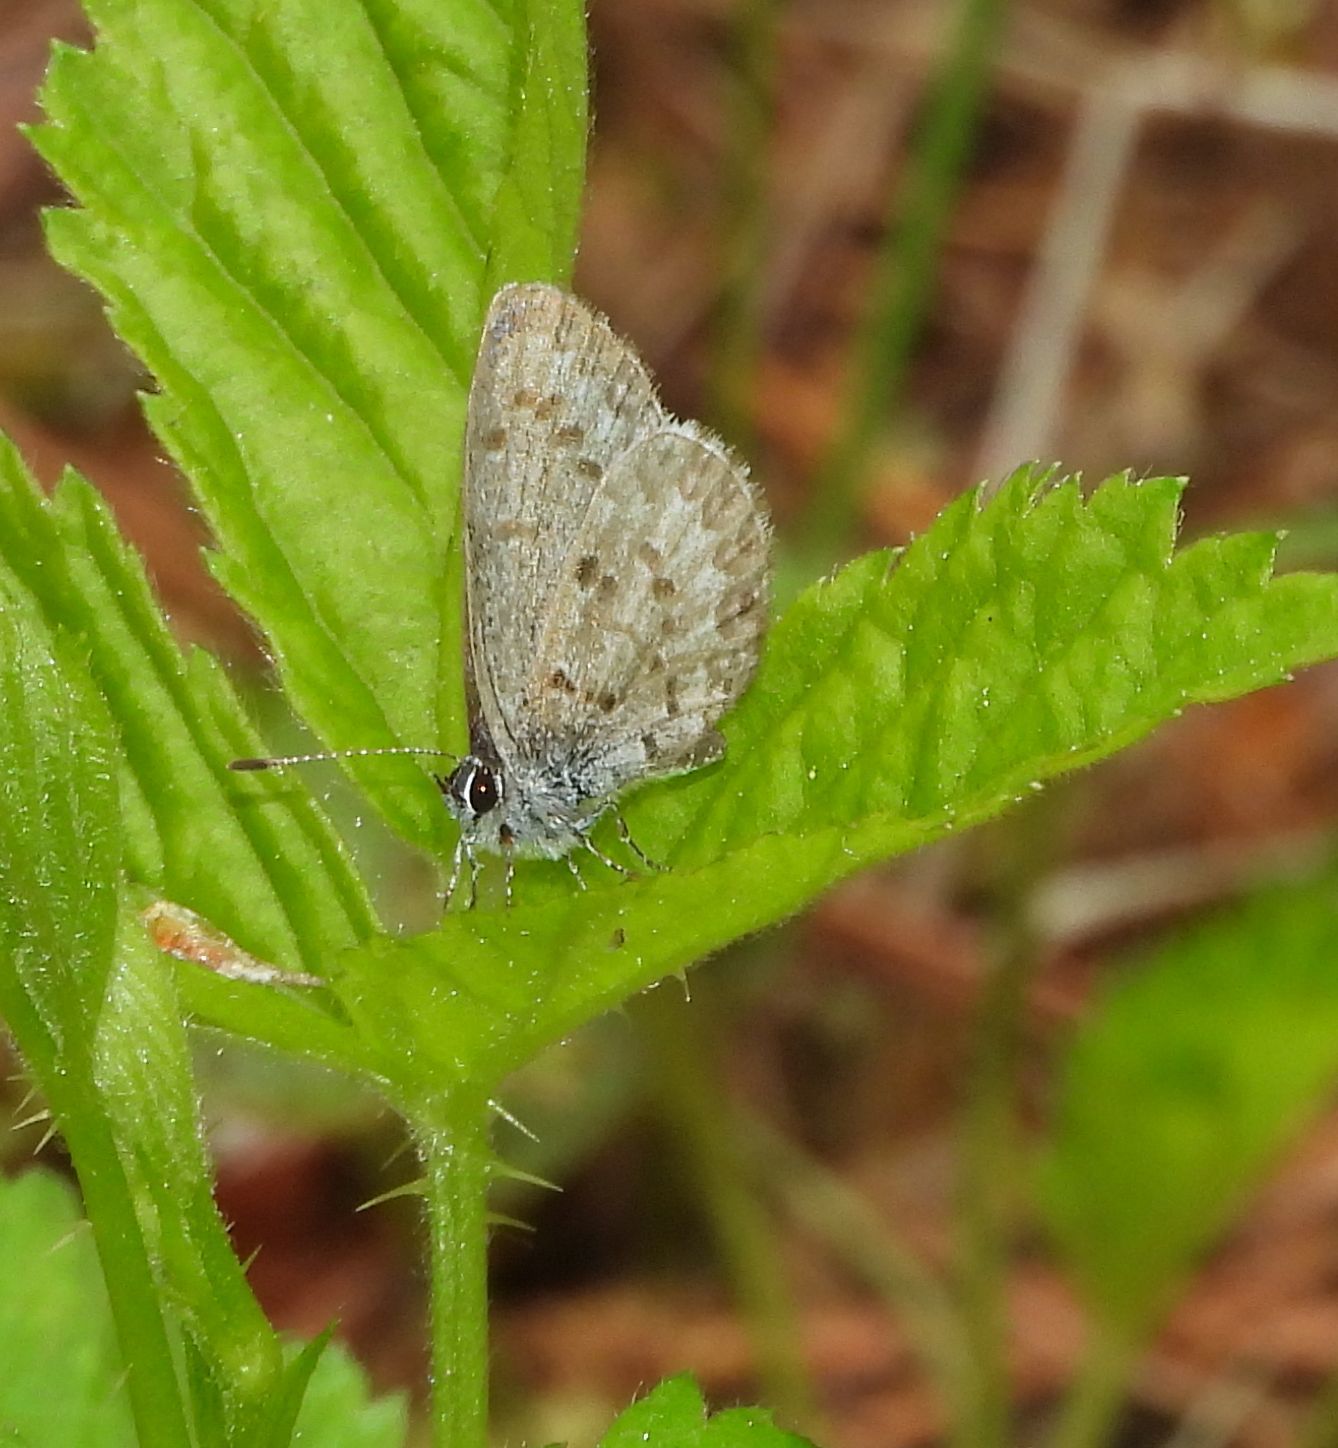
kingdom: Animalia
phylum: Arthropoda
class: Insecta
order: Lepidoptera
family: Lycaenidae
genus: Celastrina
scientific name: Celastrina lucia
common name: Lucia azure
